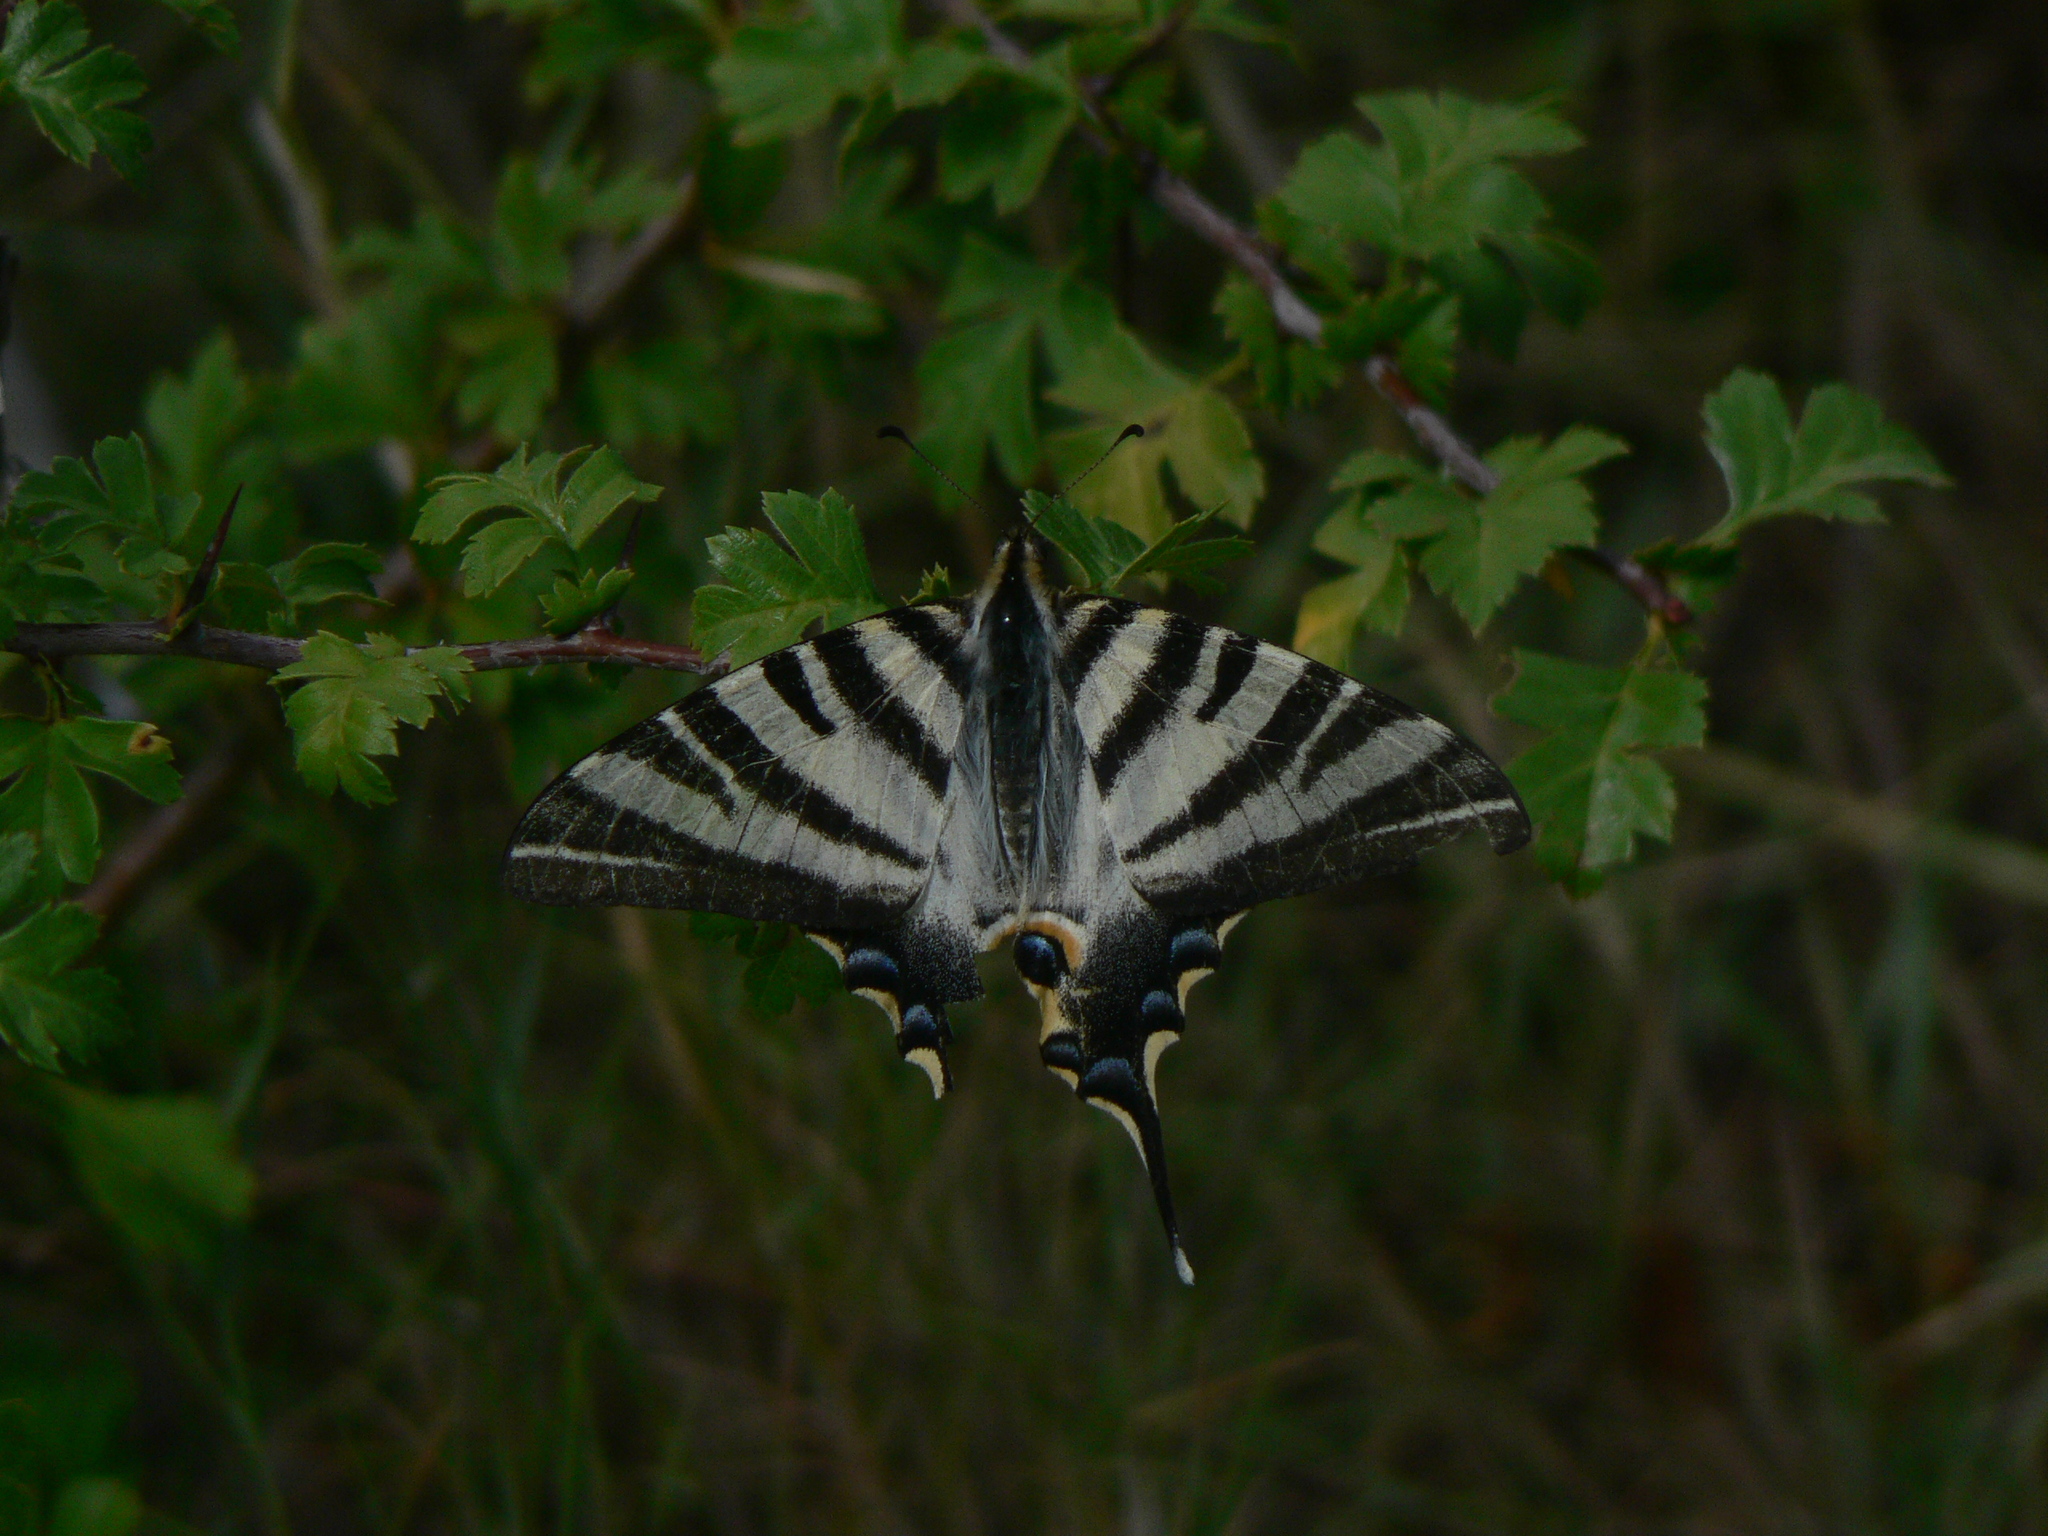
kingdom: Animalia
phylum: Arthropoda
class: Insecta
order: Lepidoptera
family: Papilionidae
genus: Iphiclides
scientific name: Iphiclides feisthamelii
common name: Iberian scarce swallowtail
